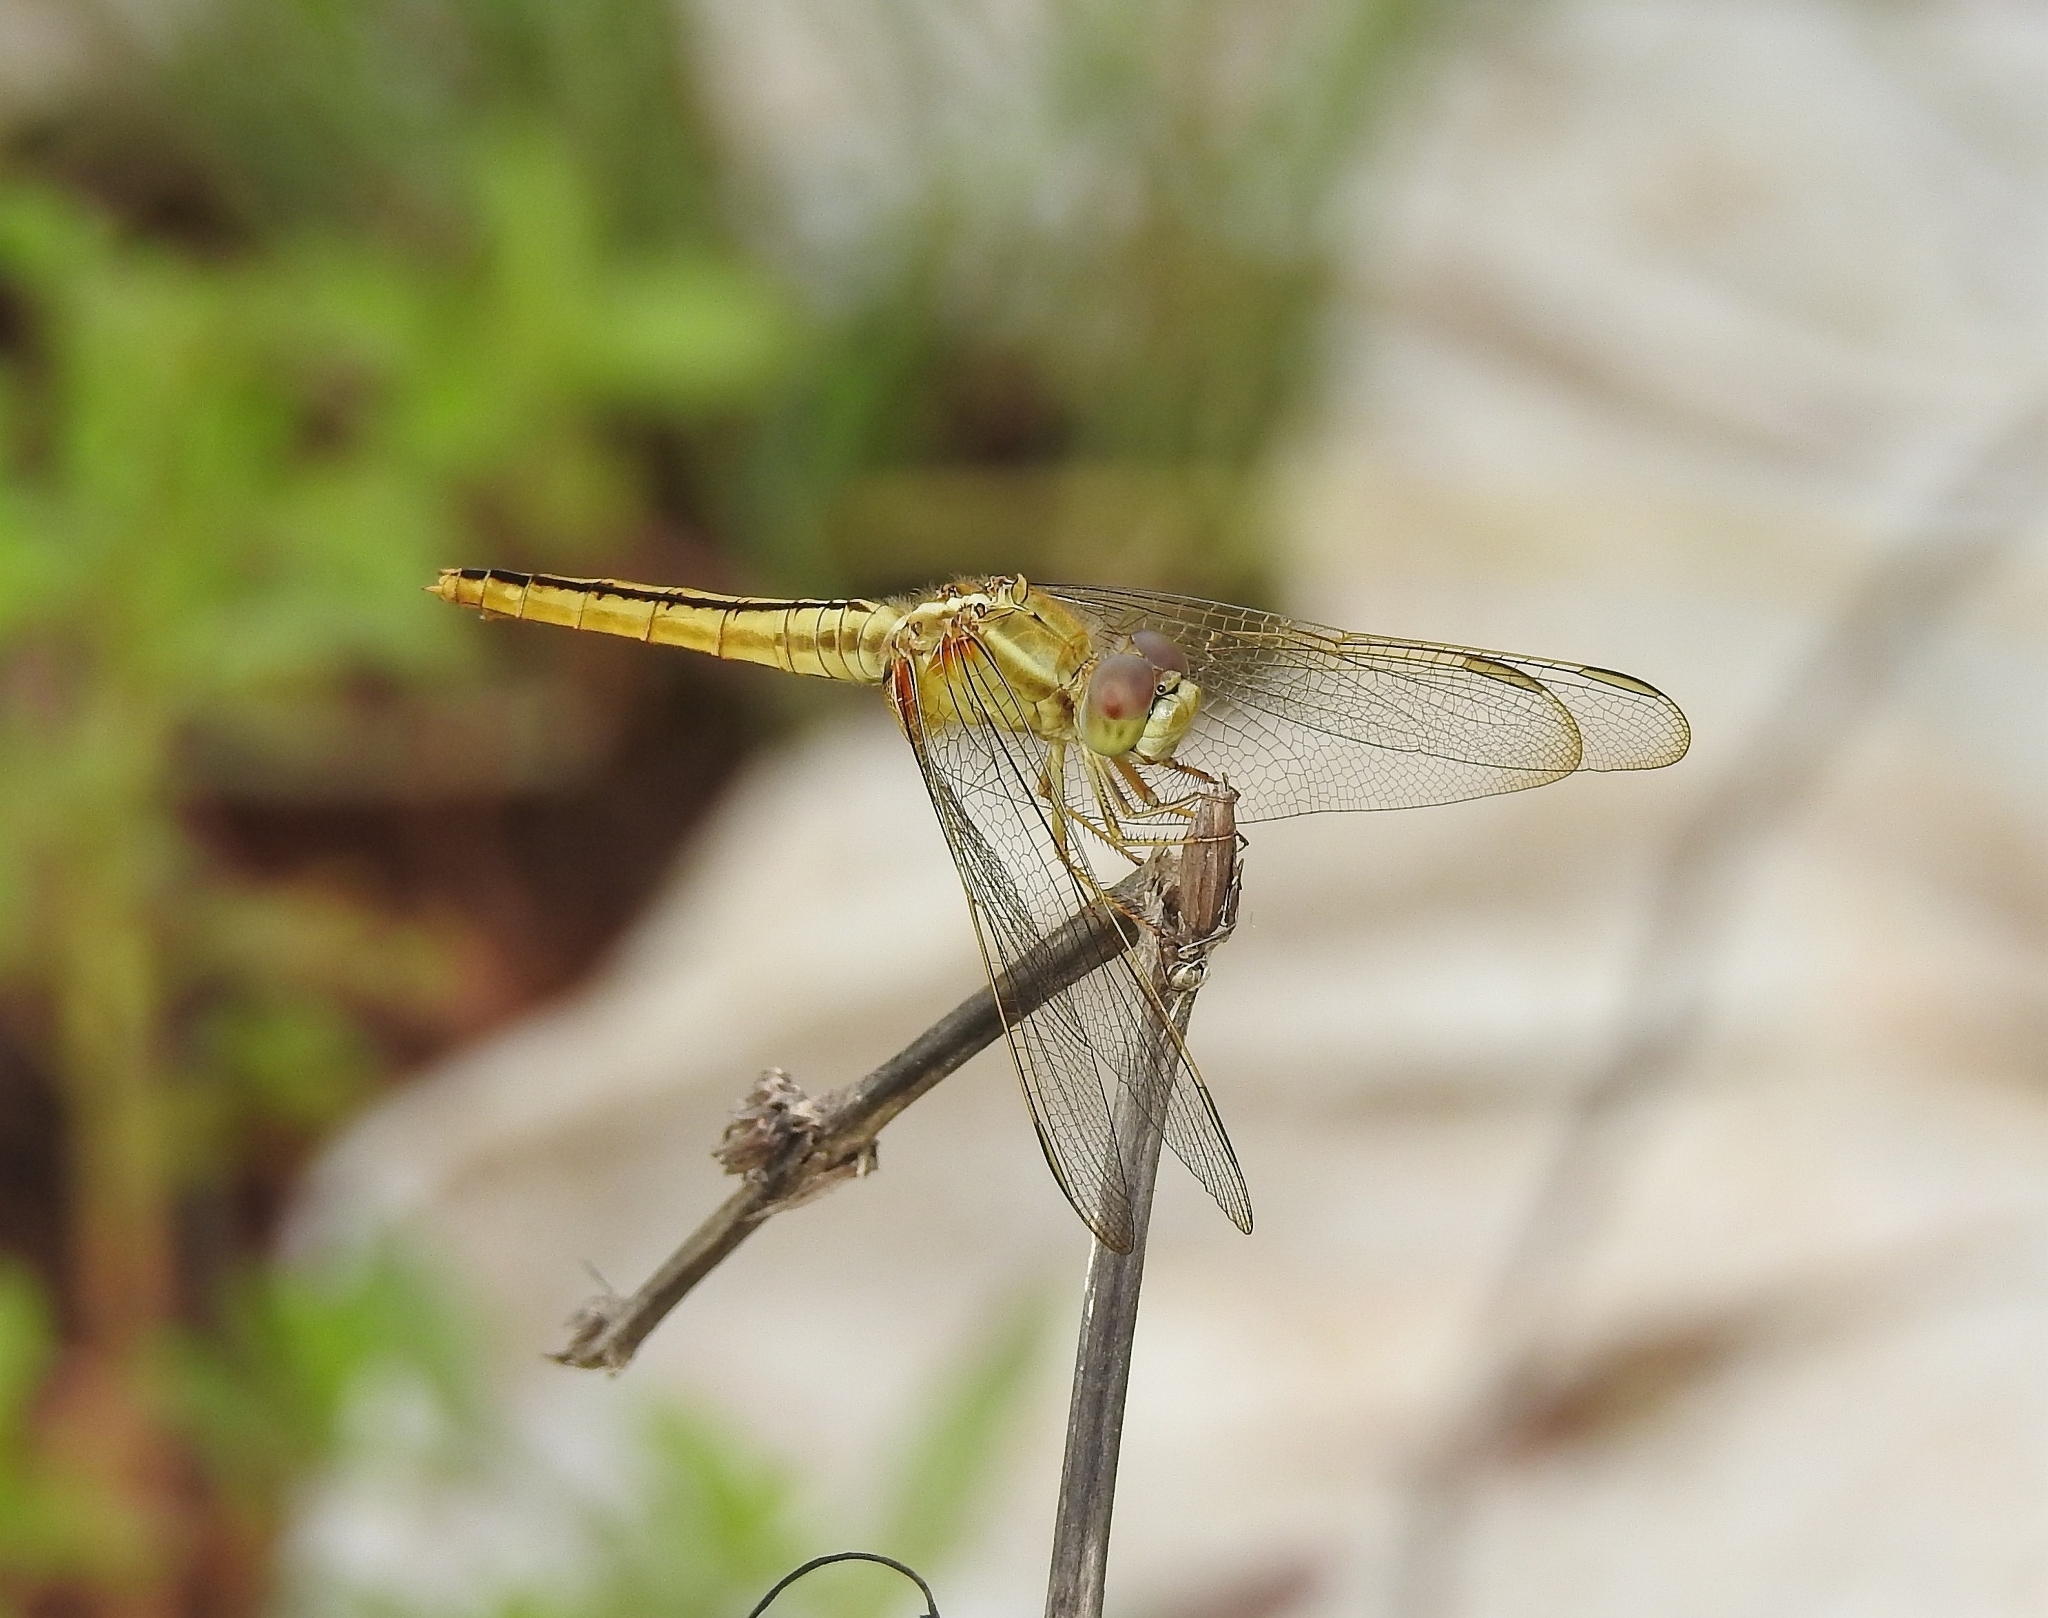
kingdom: Animalia
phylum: Arthropoda
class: Insecta
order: Odonata
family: Libellulidae
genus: Crocothemis
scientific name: Crocothemis servilia
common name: Scarlet skimmer
